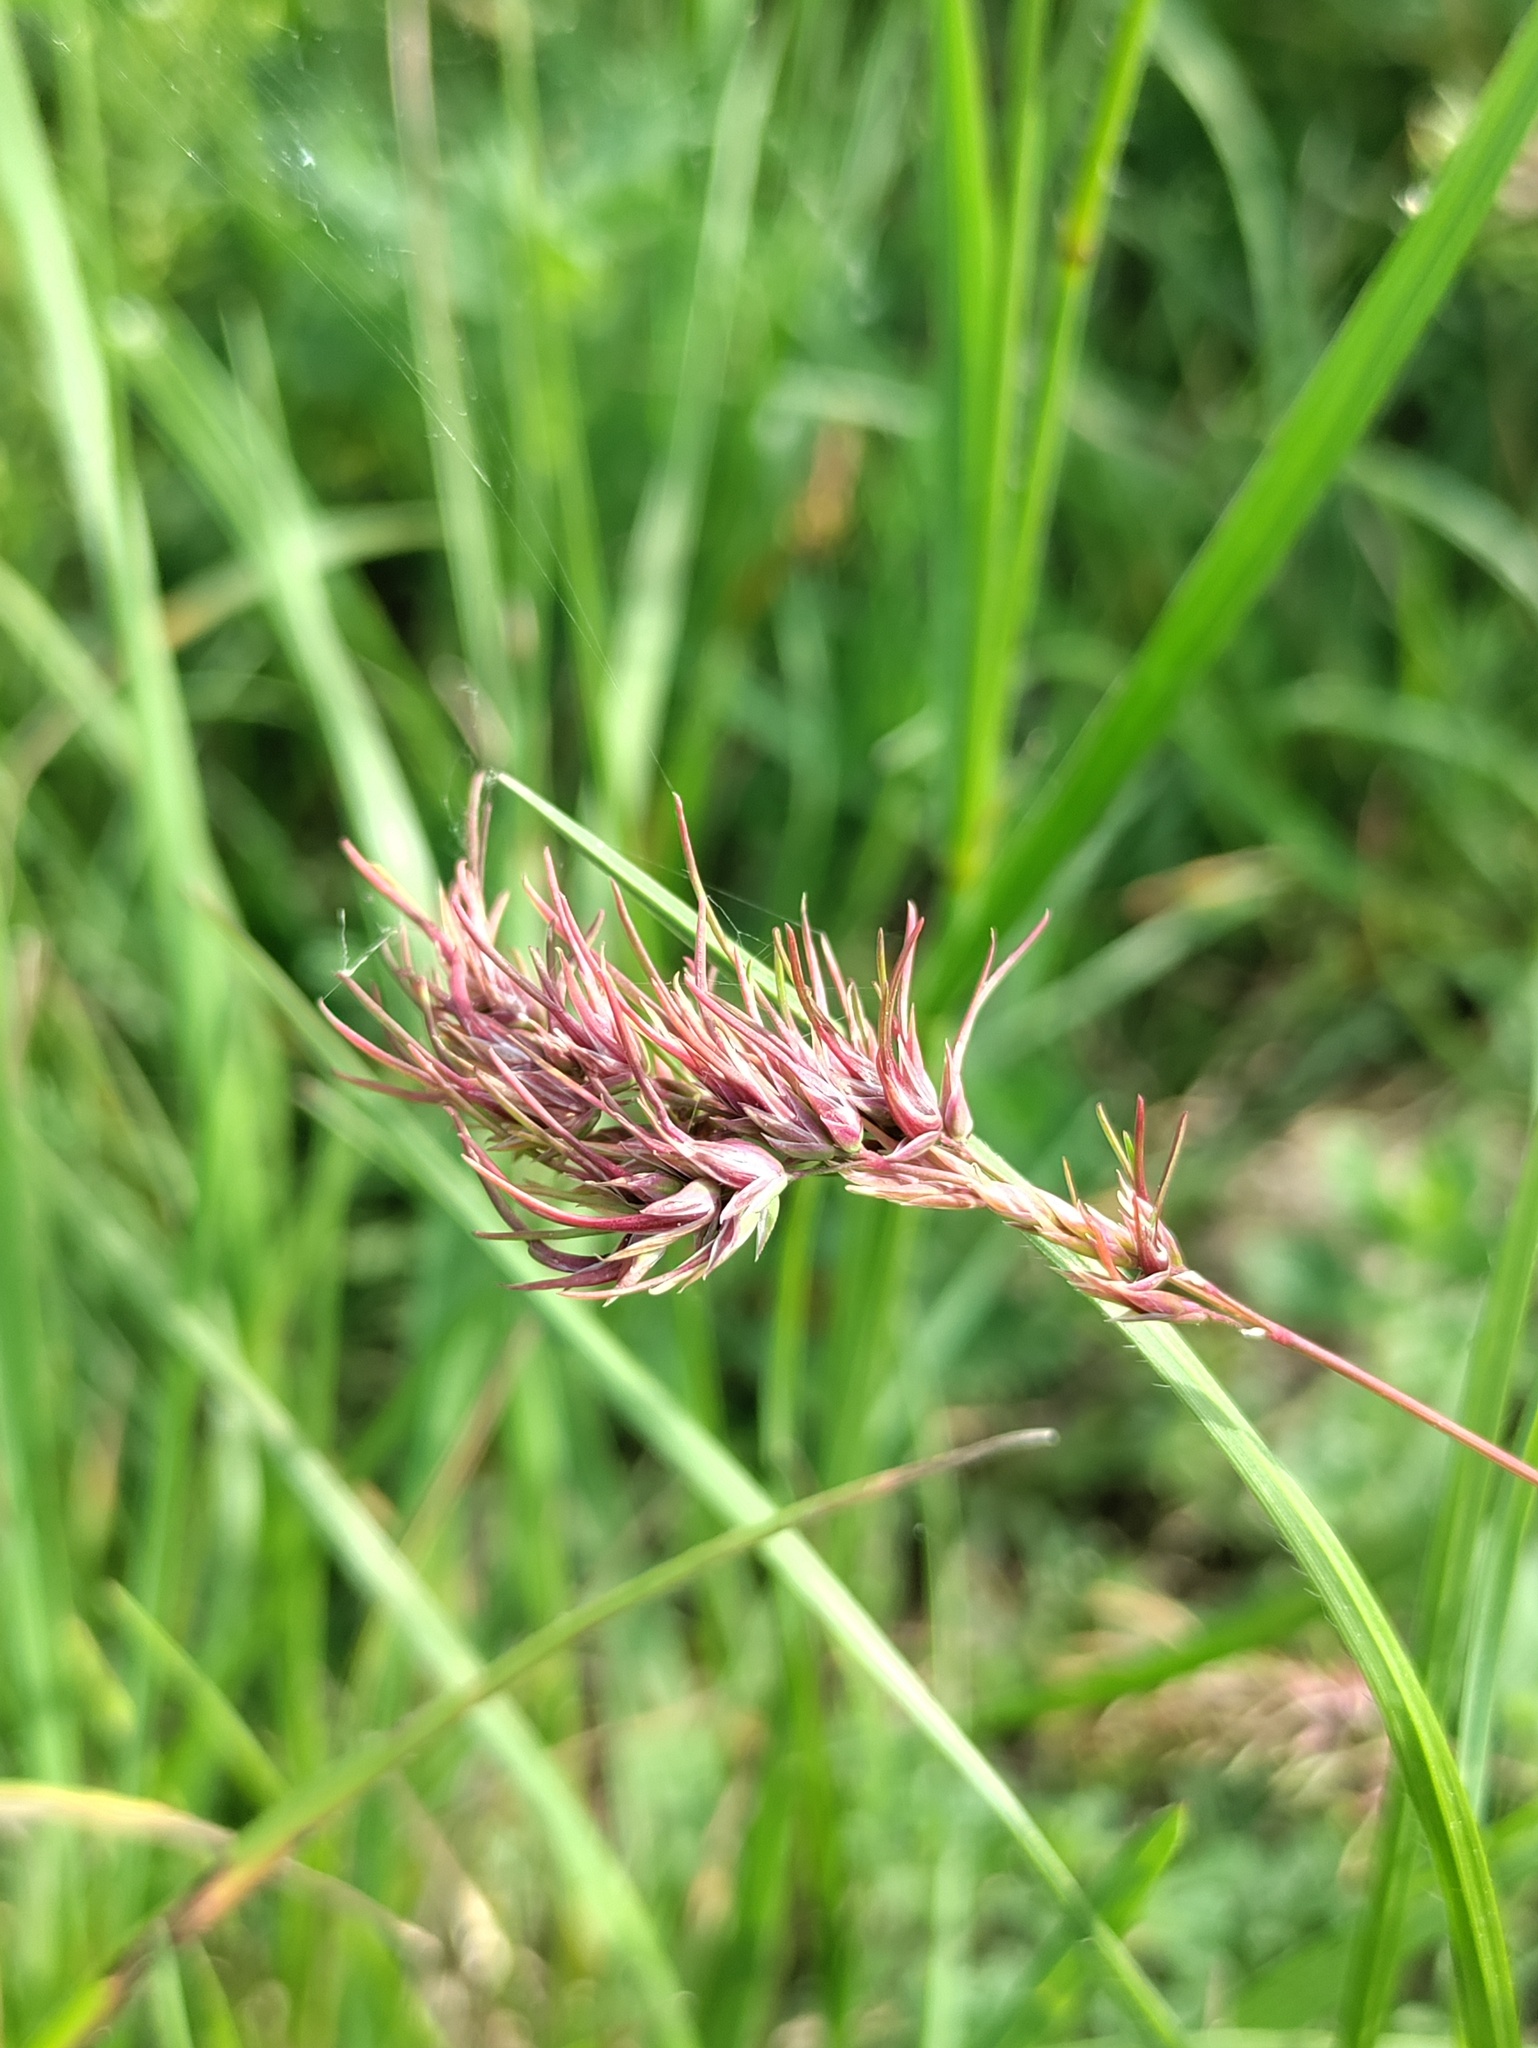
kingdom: Plantae
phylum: Tracheophyta
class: Liliopsida
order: Poales
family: Poaceae
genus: Poa
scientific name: Poa bulbosa
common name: Bulbous bluegrass
